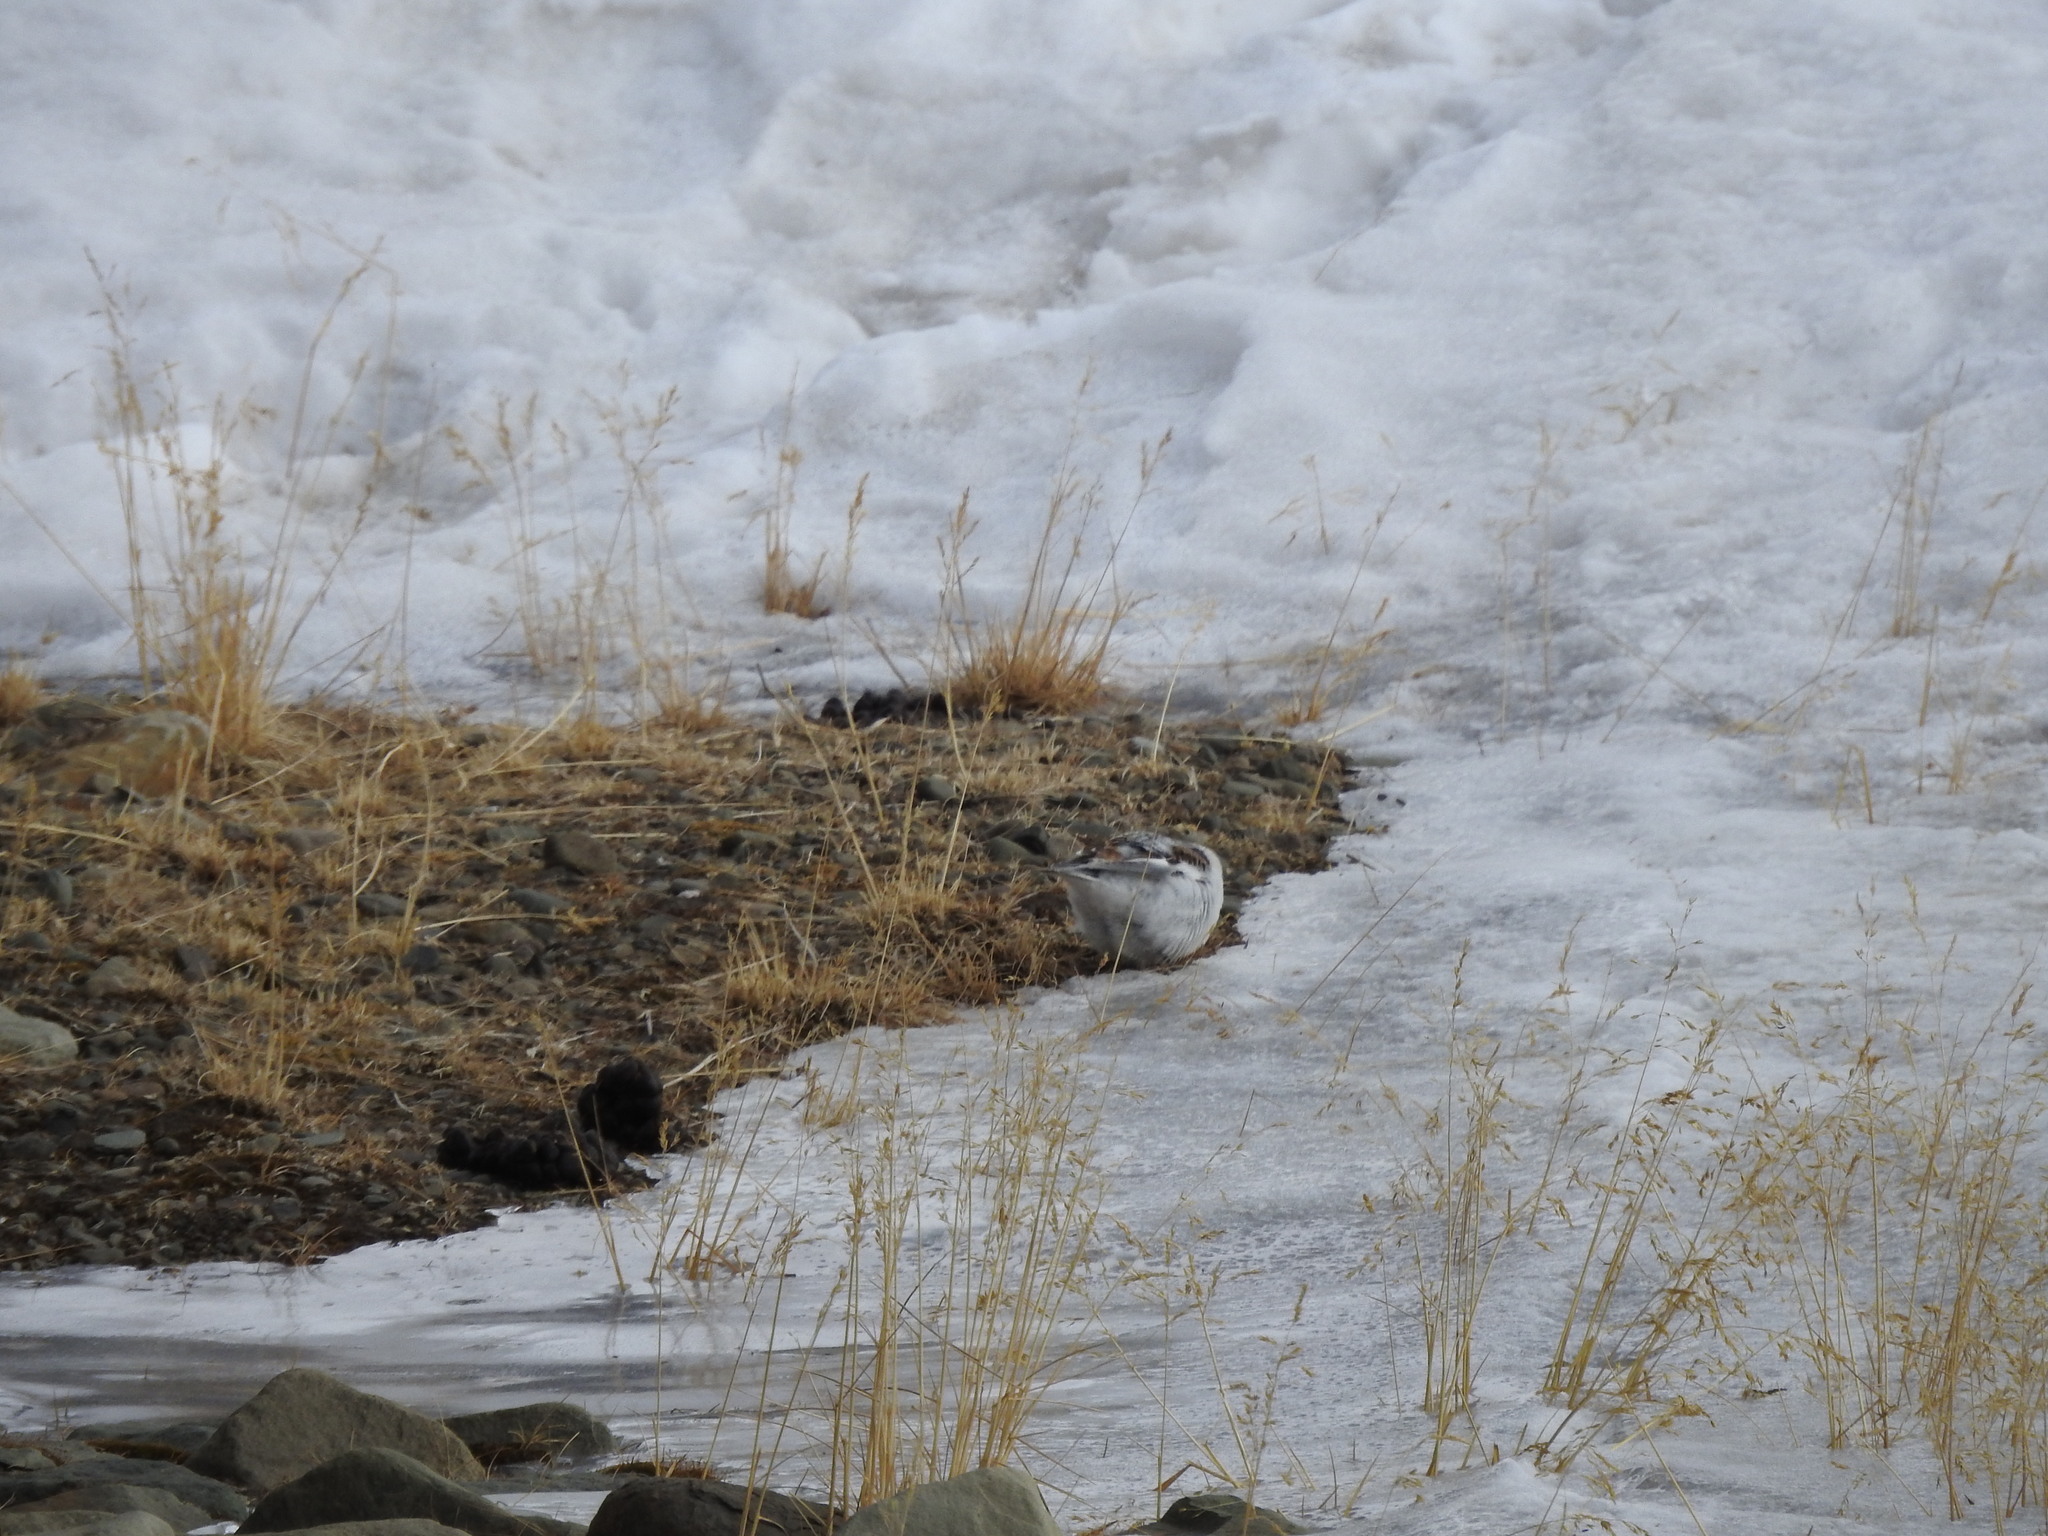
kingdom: Animalia
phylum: Chordata
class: Aves
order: Passeriformes
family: Calcariidae
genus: Plectrophenax
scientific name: Plectrophenax nivalis
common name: Snow bunting
